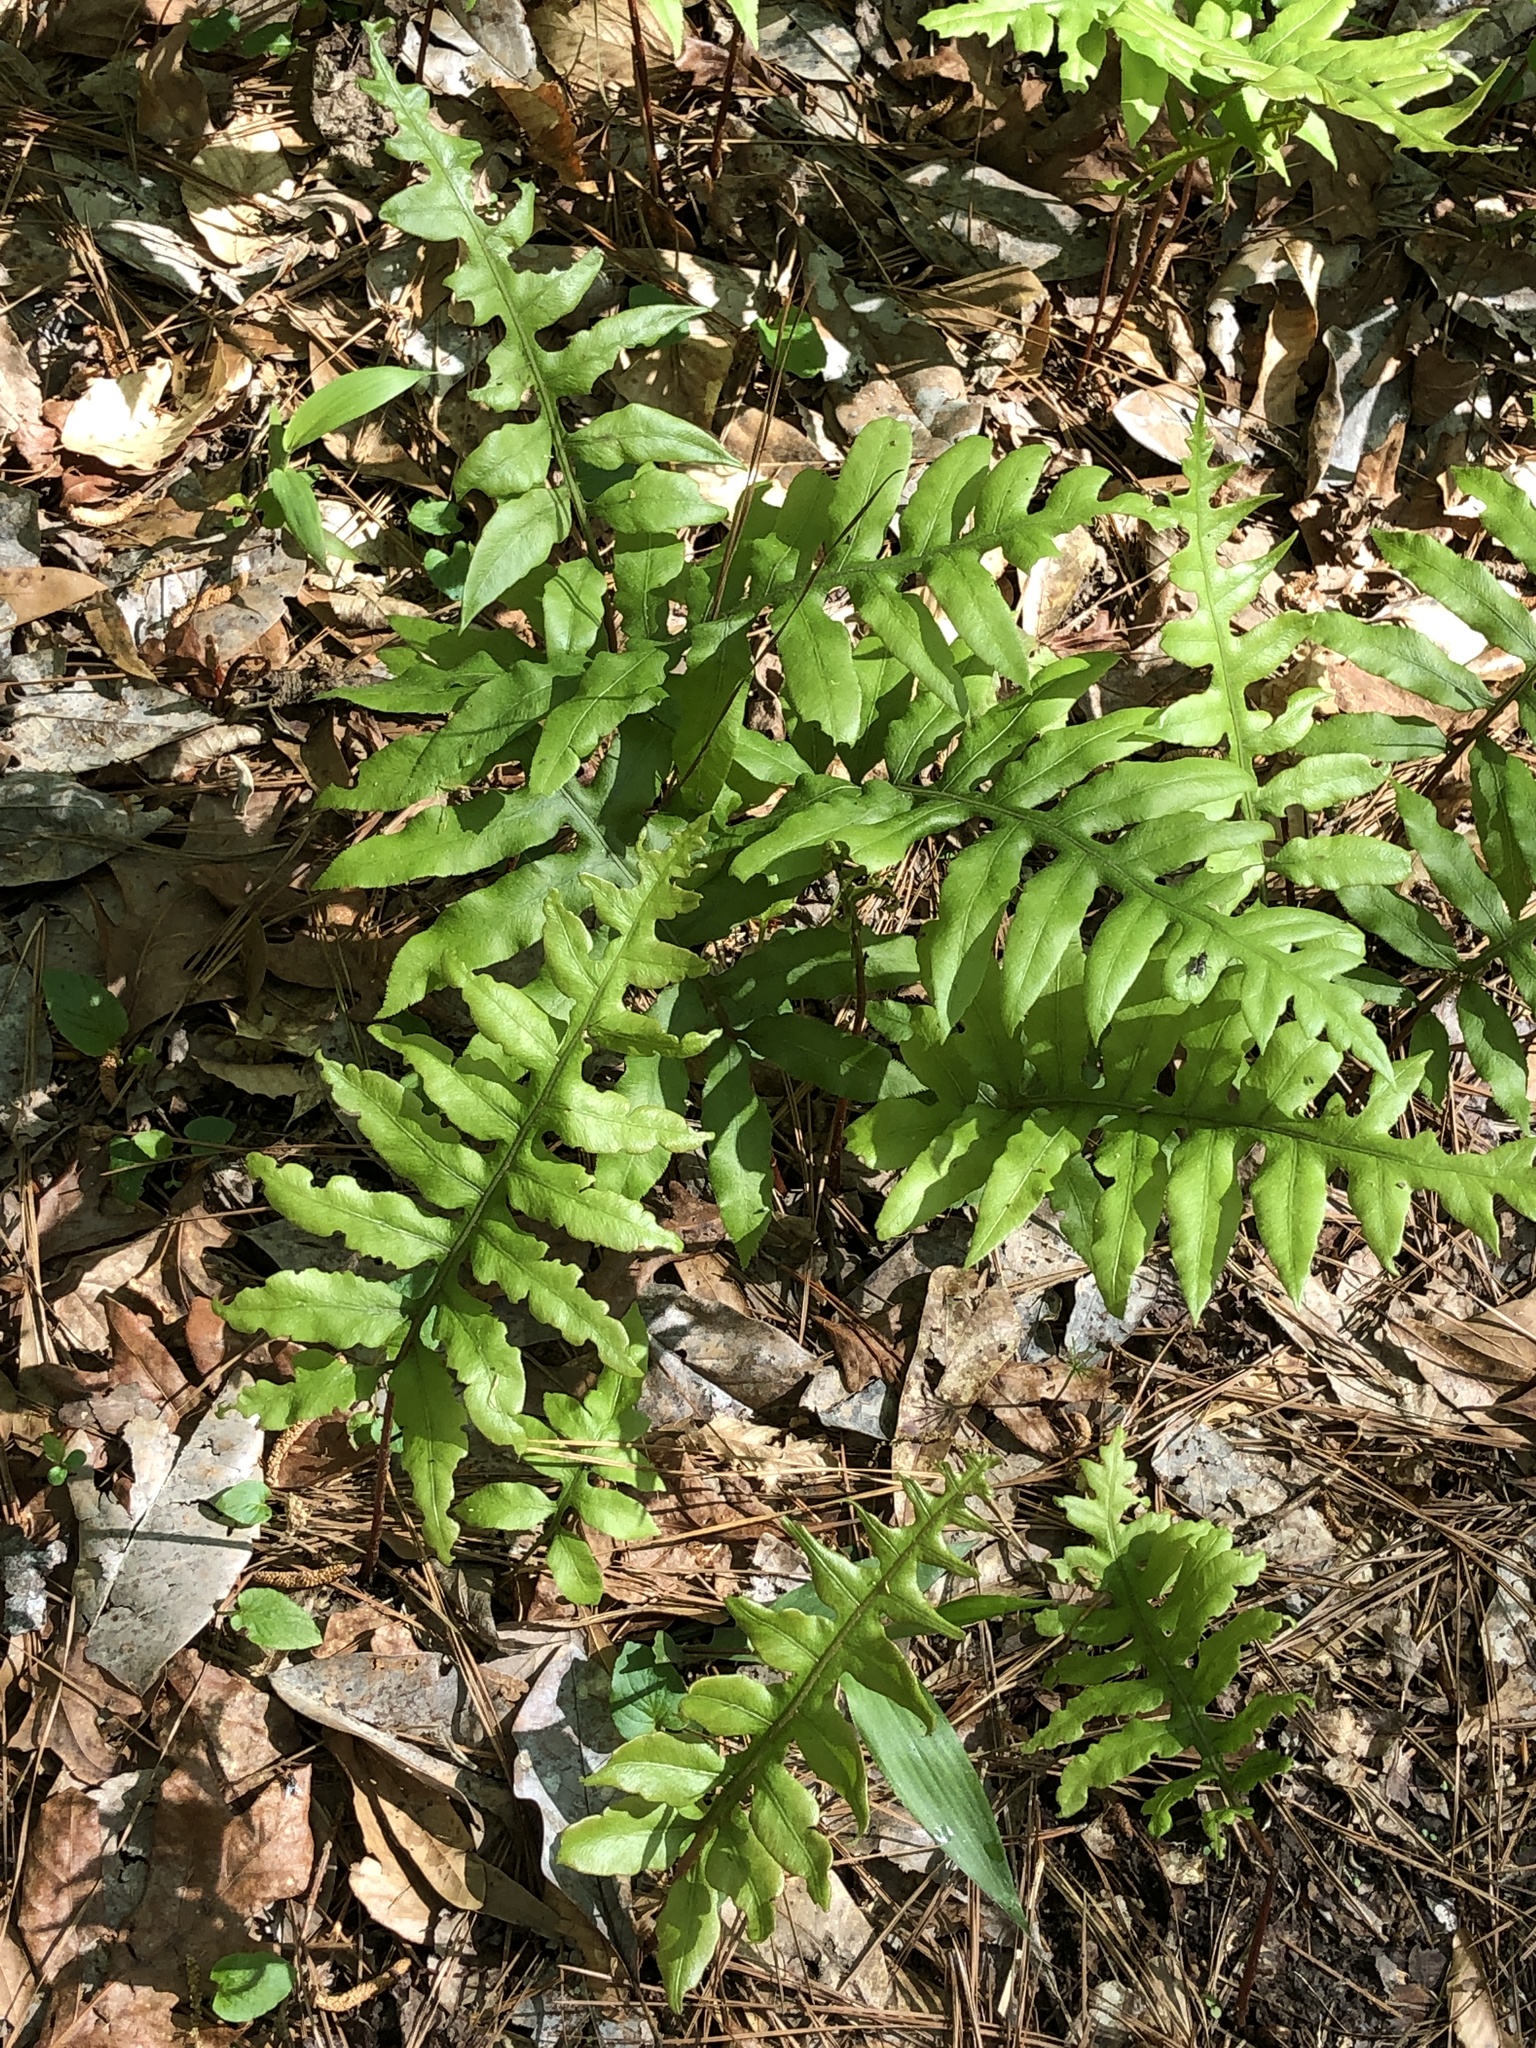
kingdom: Plantae
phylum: Tracheophyta
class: Polypodiopsida
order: Polypodiales
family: Blechnaceae
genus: Lorinseria
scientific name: Lorinseria areolata
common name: Dwarf chain fern
